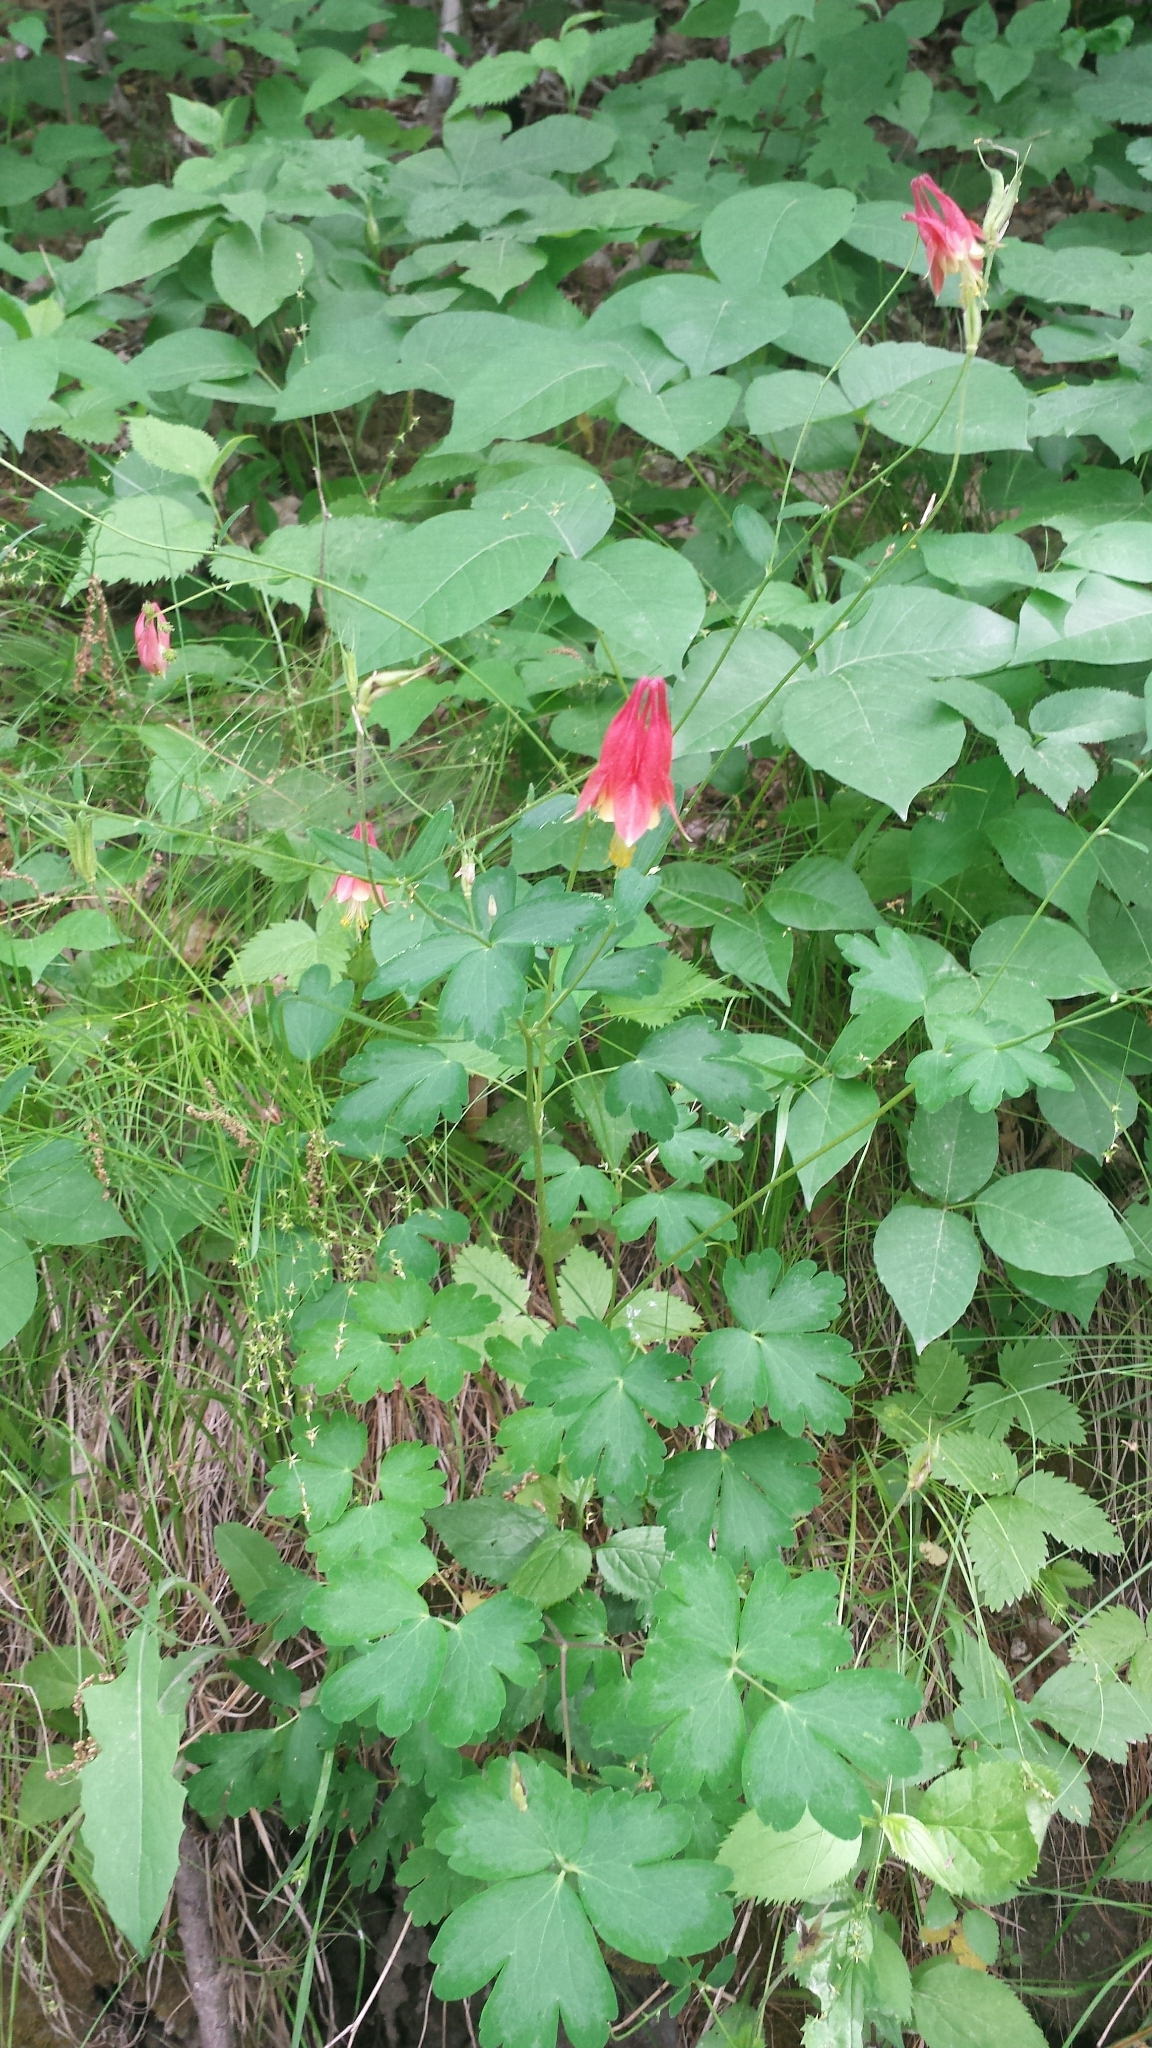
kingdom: Plantae
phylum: Tracheophyta
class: Magnoliopsida
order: Ranunculales
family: Ranunculaceae
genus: Aquilegia
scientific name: Aquilegia canadensis
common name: American columbine
